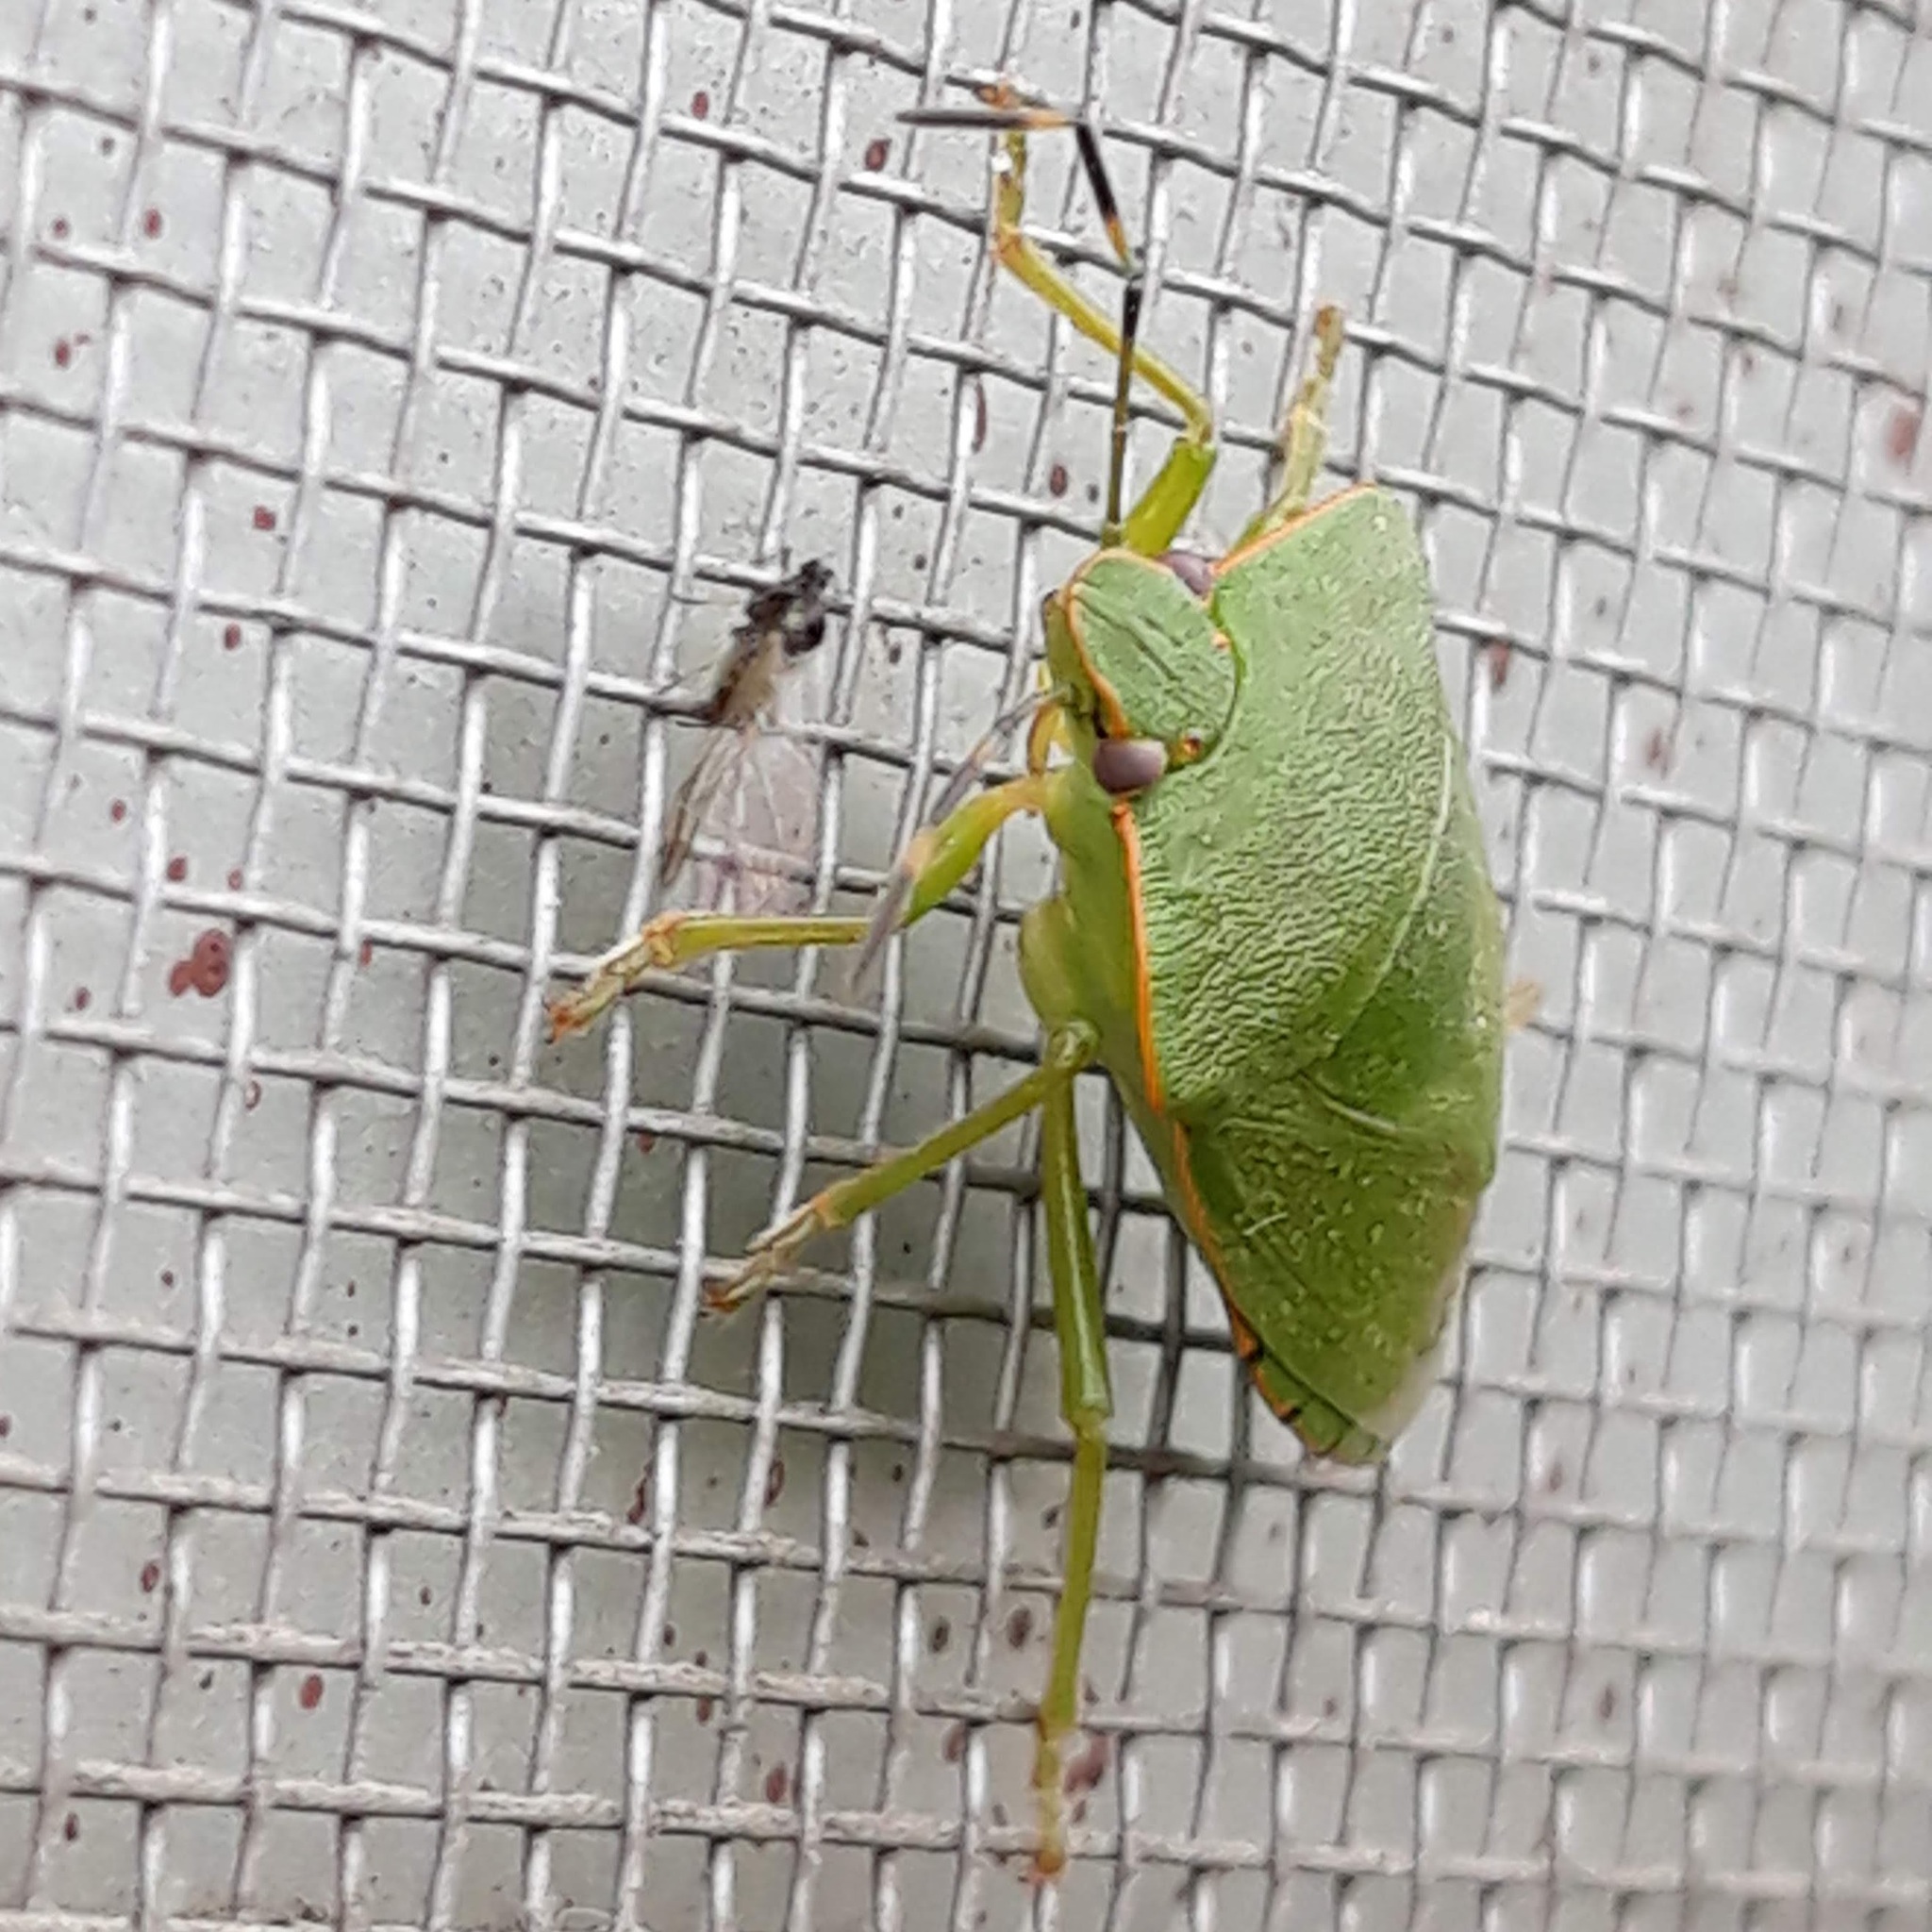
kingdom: Animalia
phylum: Arthropoda
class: Insecta
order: Hemiptera
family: Pentatomidae
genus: Chinavia
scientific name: Chinavia hilaris
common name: Green stink bug
